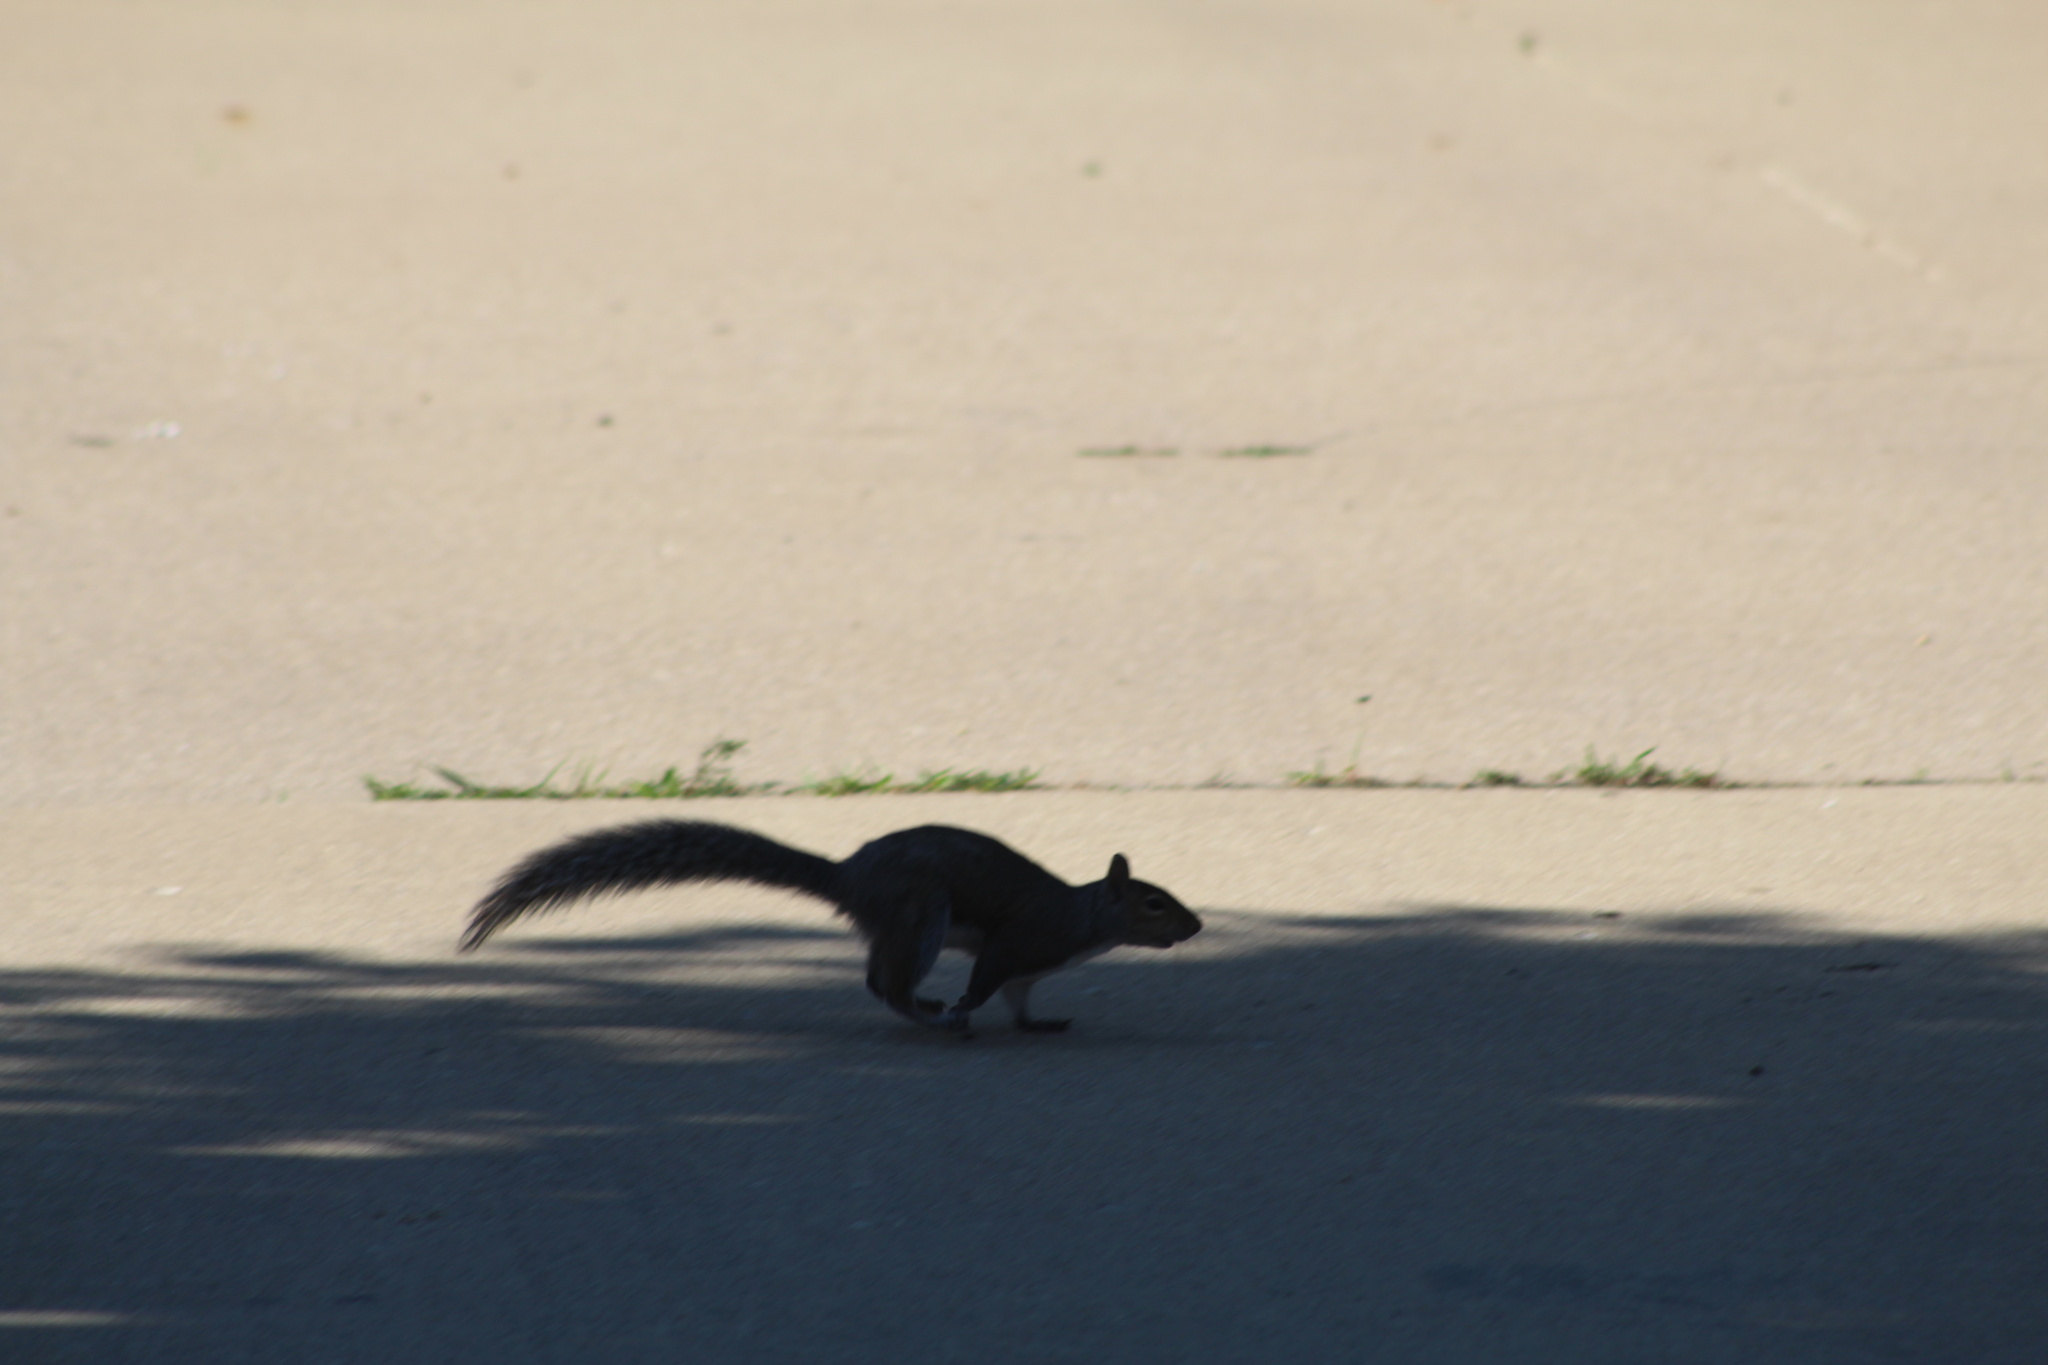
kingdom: Animalia
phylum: Chordata
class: Mammalia
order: Rodentia
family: Sciuridae
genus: Sciurus
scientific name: Sciurus carolinensis
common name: Eastern gray squirrel
